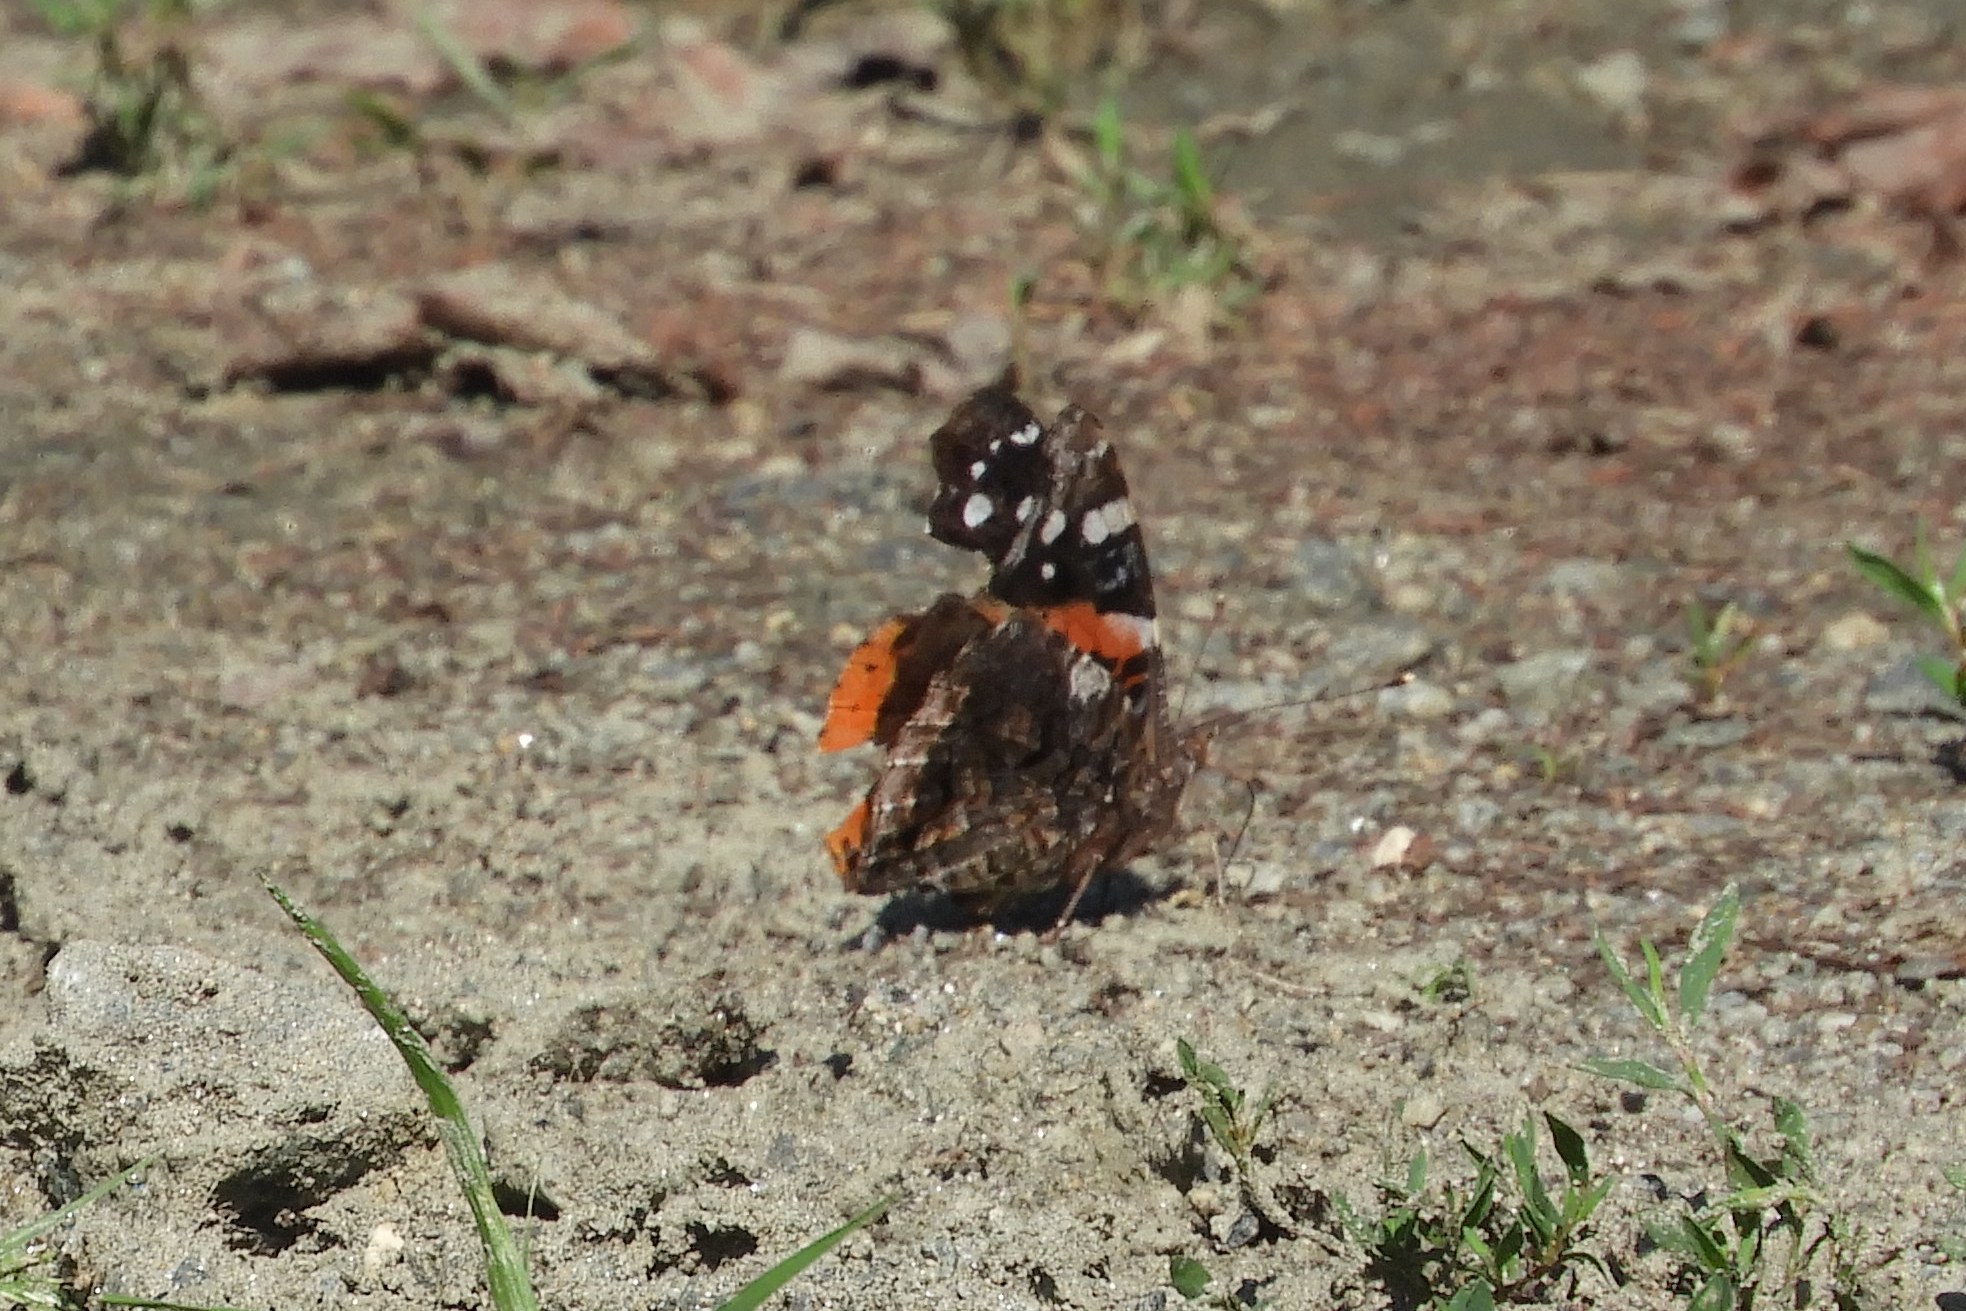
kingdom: Animalia
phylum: Arthropoda
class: Insecta
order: Lepidoptera
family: Nymphalidae
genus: Vanessa
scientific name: Vanessa atalanta
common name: Red admiral
